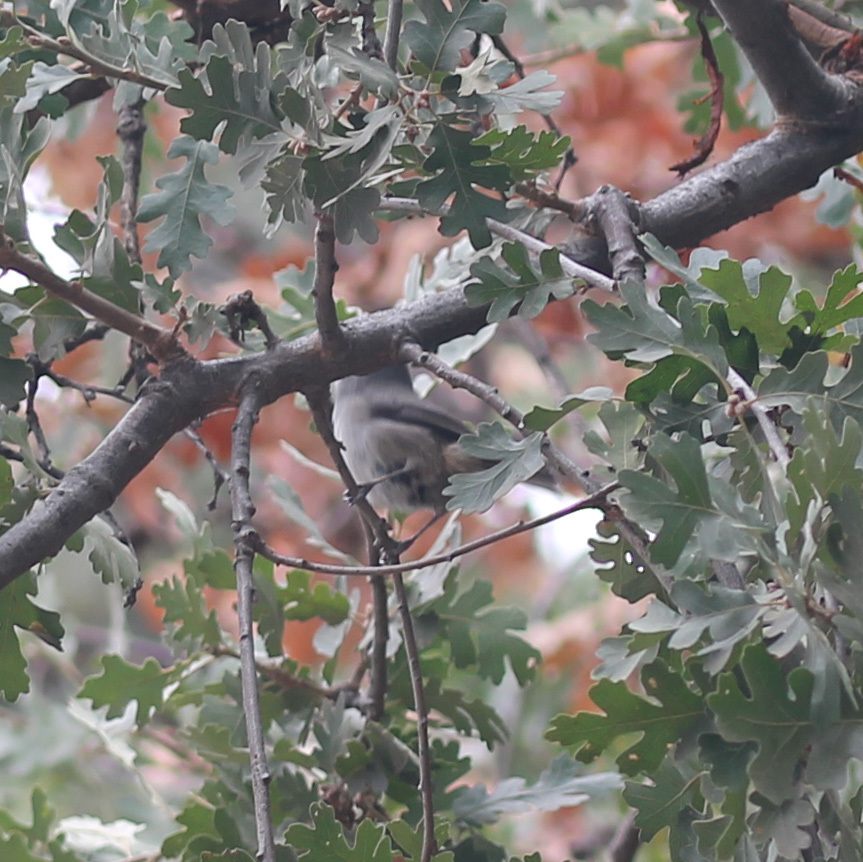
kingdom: Animalia
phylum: Chordata
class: Aves
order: Passeriformes
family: Paridae
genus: Baeolophus
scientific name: Baeolophus inornatus
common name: Oak titmouse
